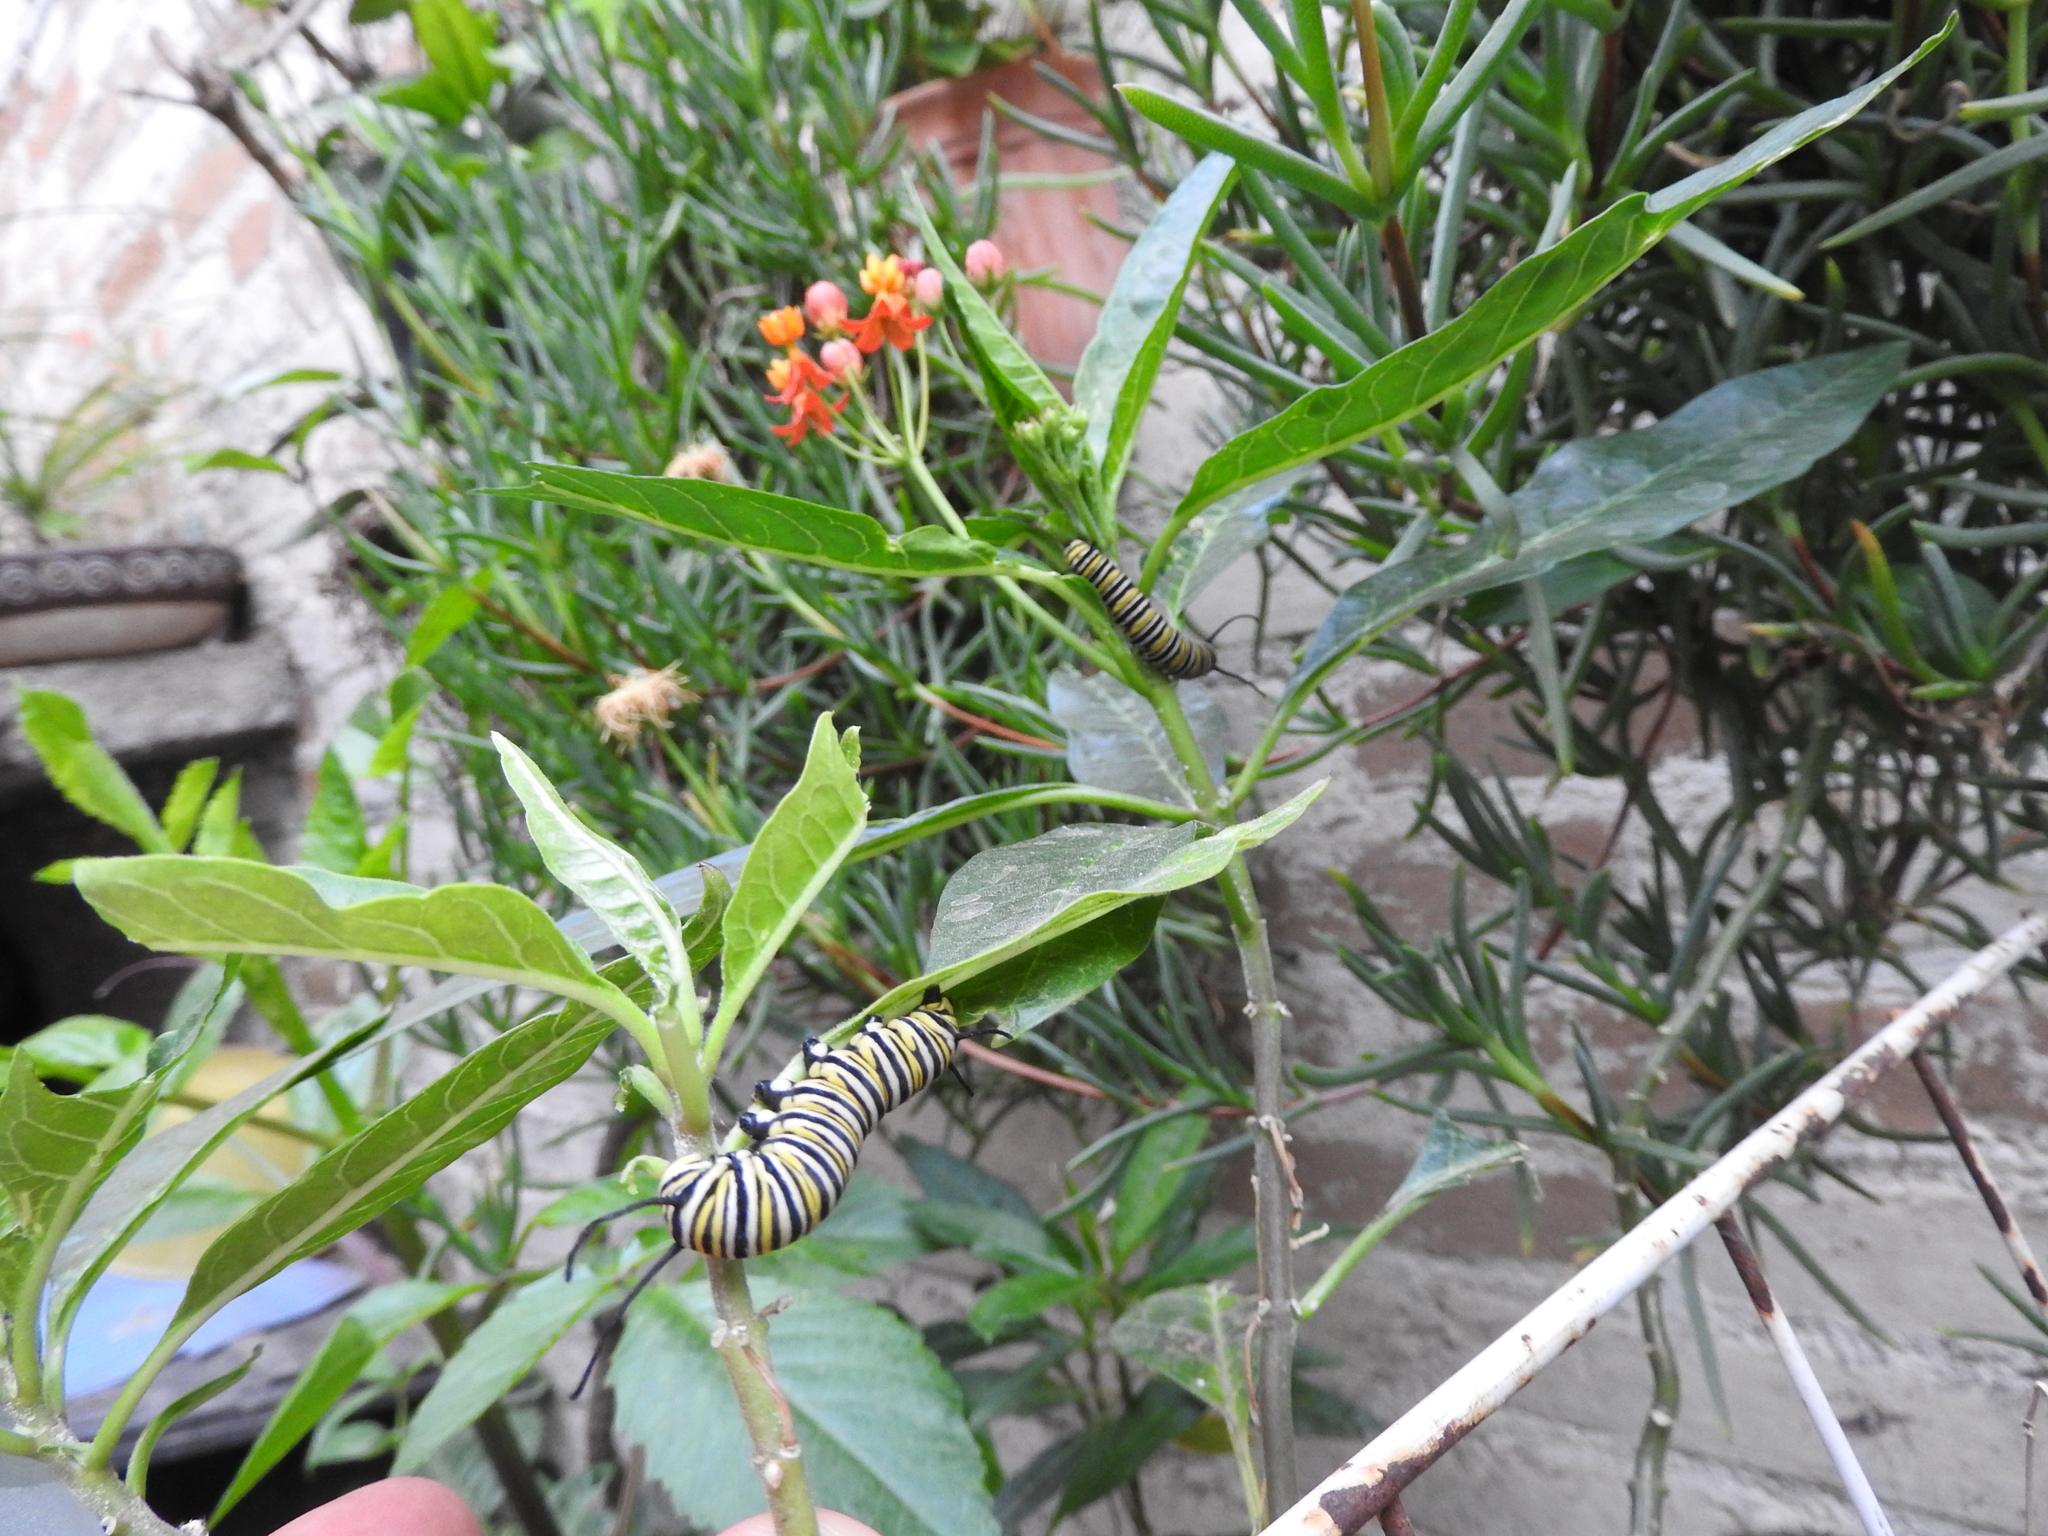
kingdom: Animalia
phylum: Arthropoda
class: Insecta
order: Lepidoptera
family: Nymphalidae
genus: Danaus
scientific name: Danaus plexippus
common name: Monarch
